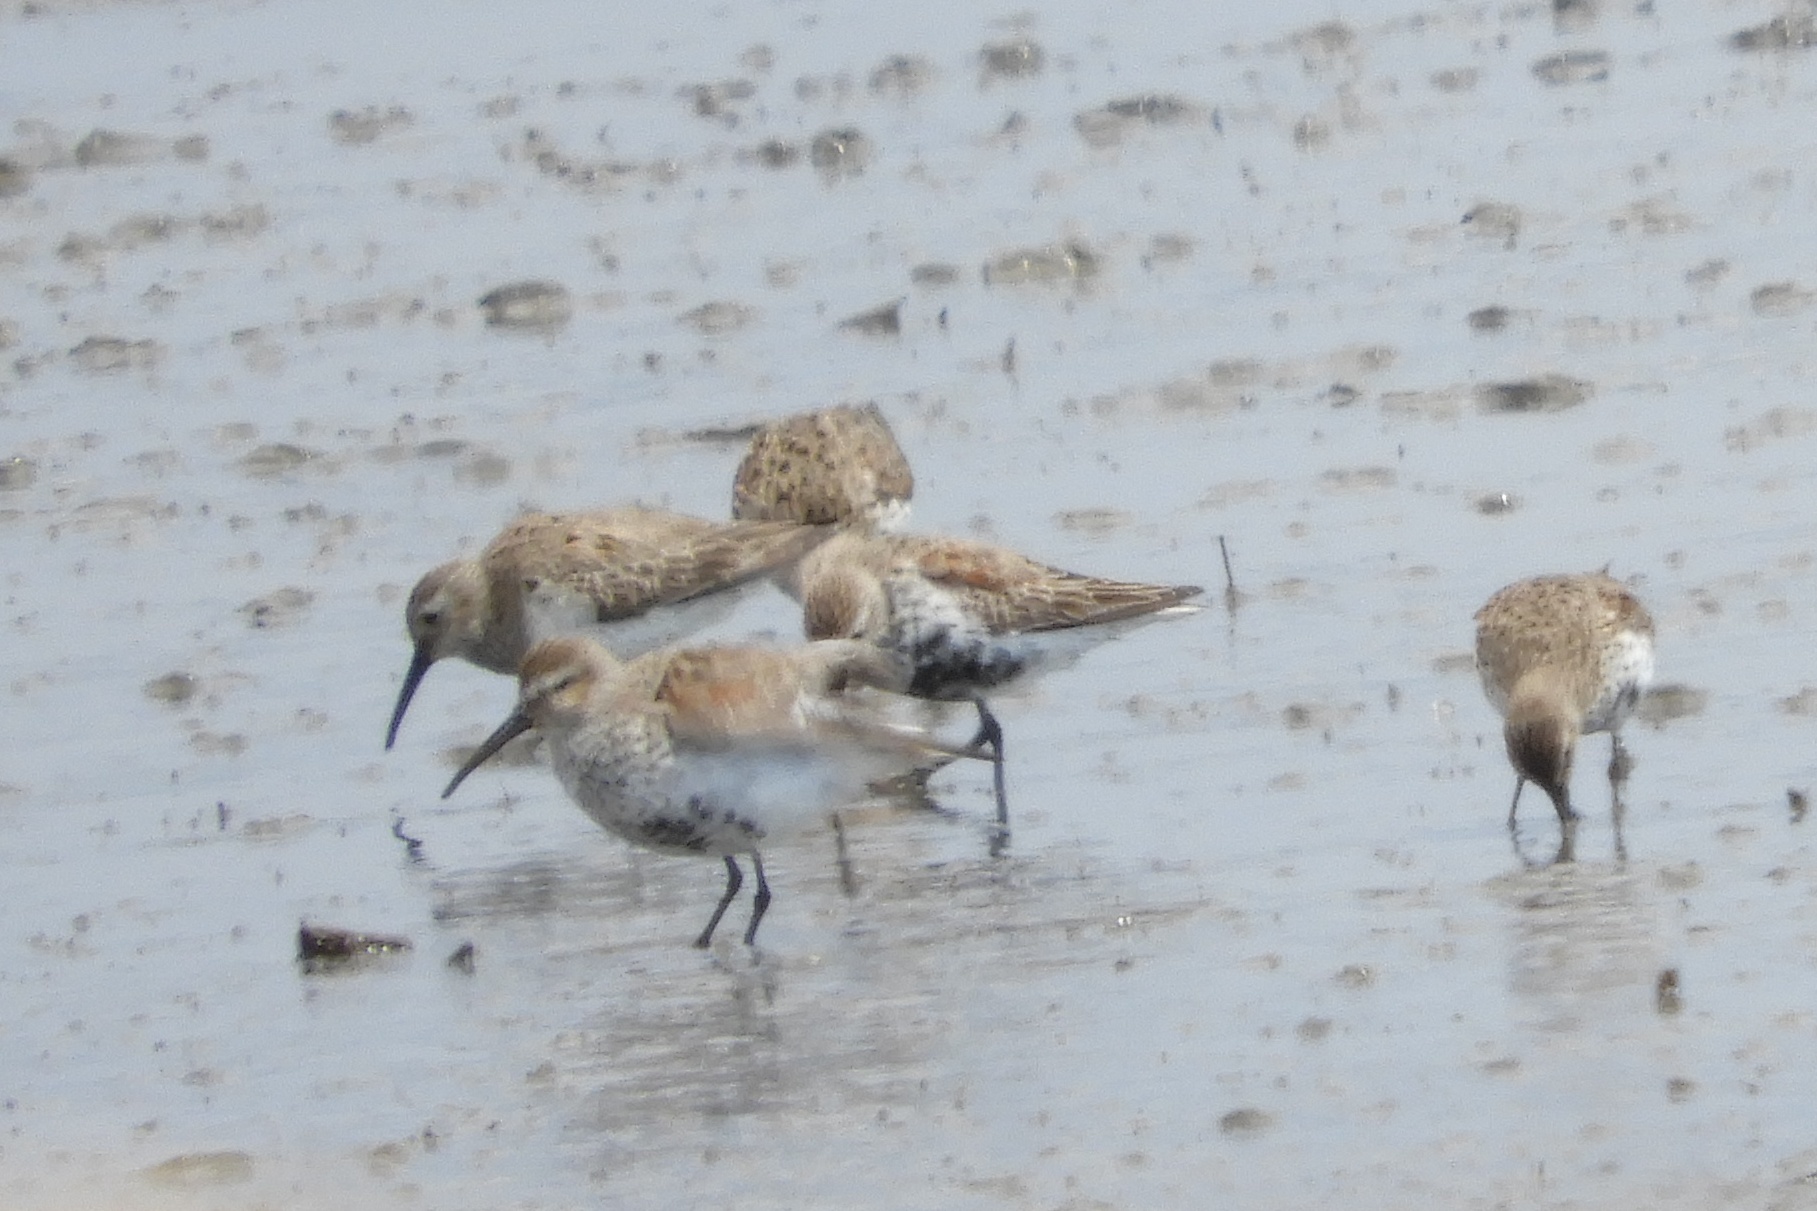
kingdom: Animalia
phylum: Chordata
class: Aves
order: Charadriiformes
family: Scolopacidae
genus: Calidris
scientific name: Calidris alpina
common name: Dunlin
